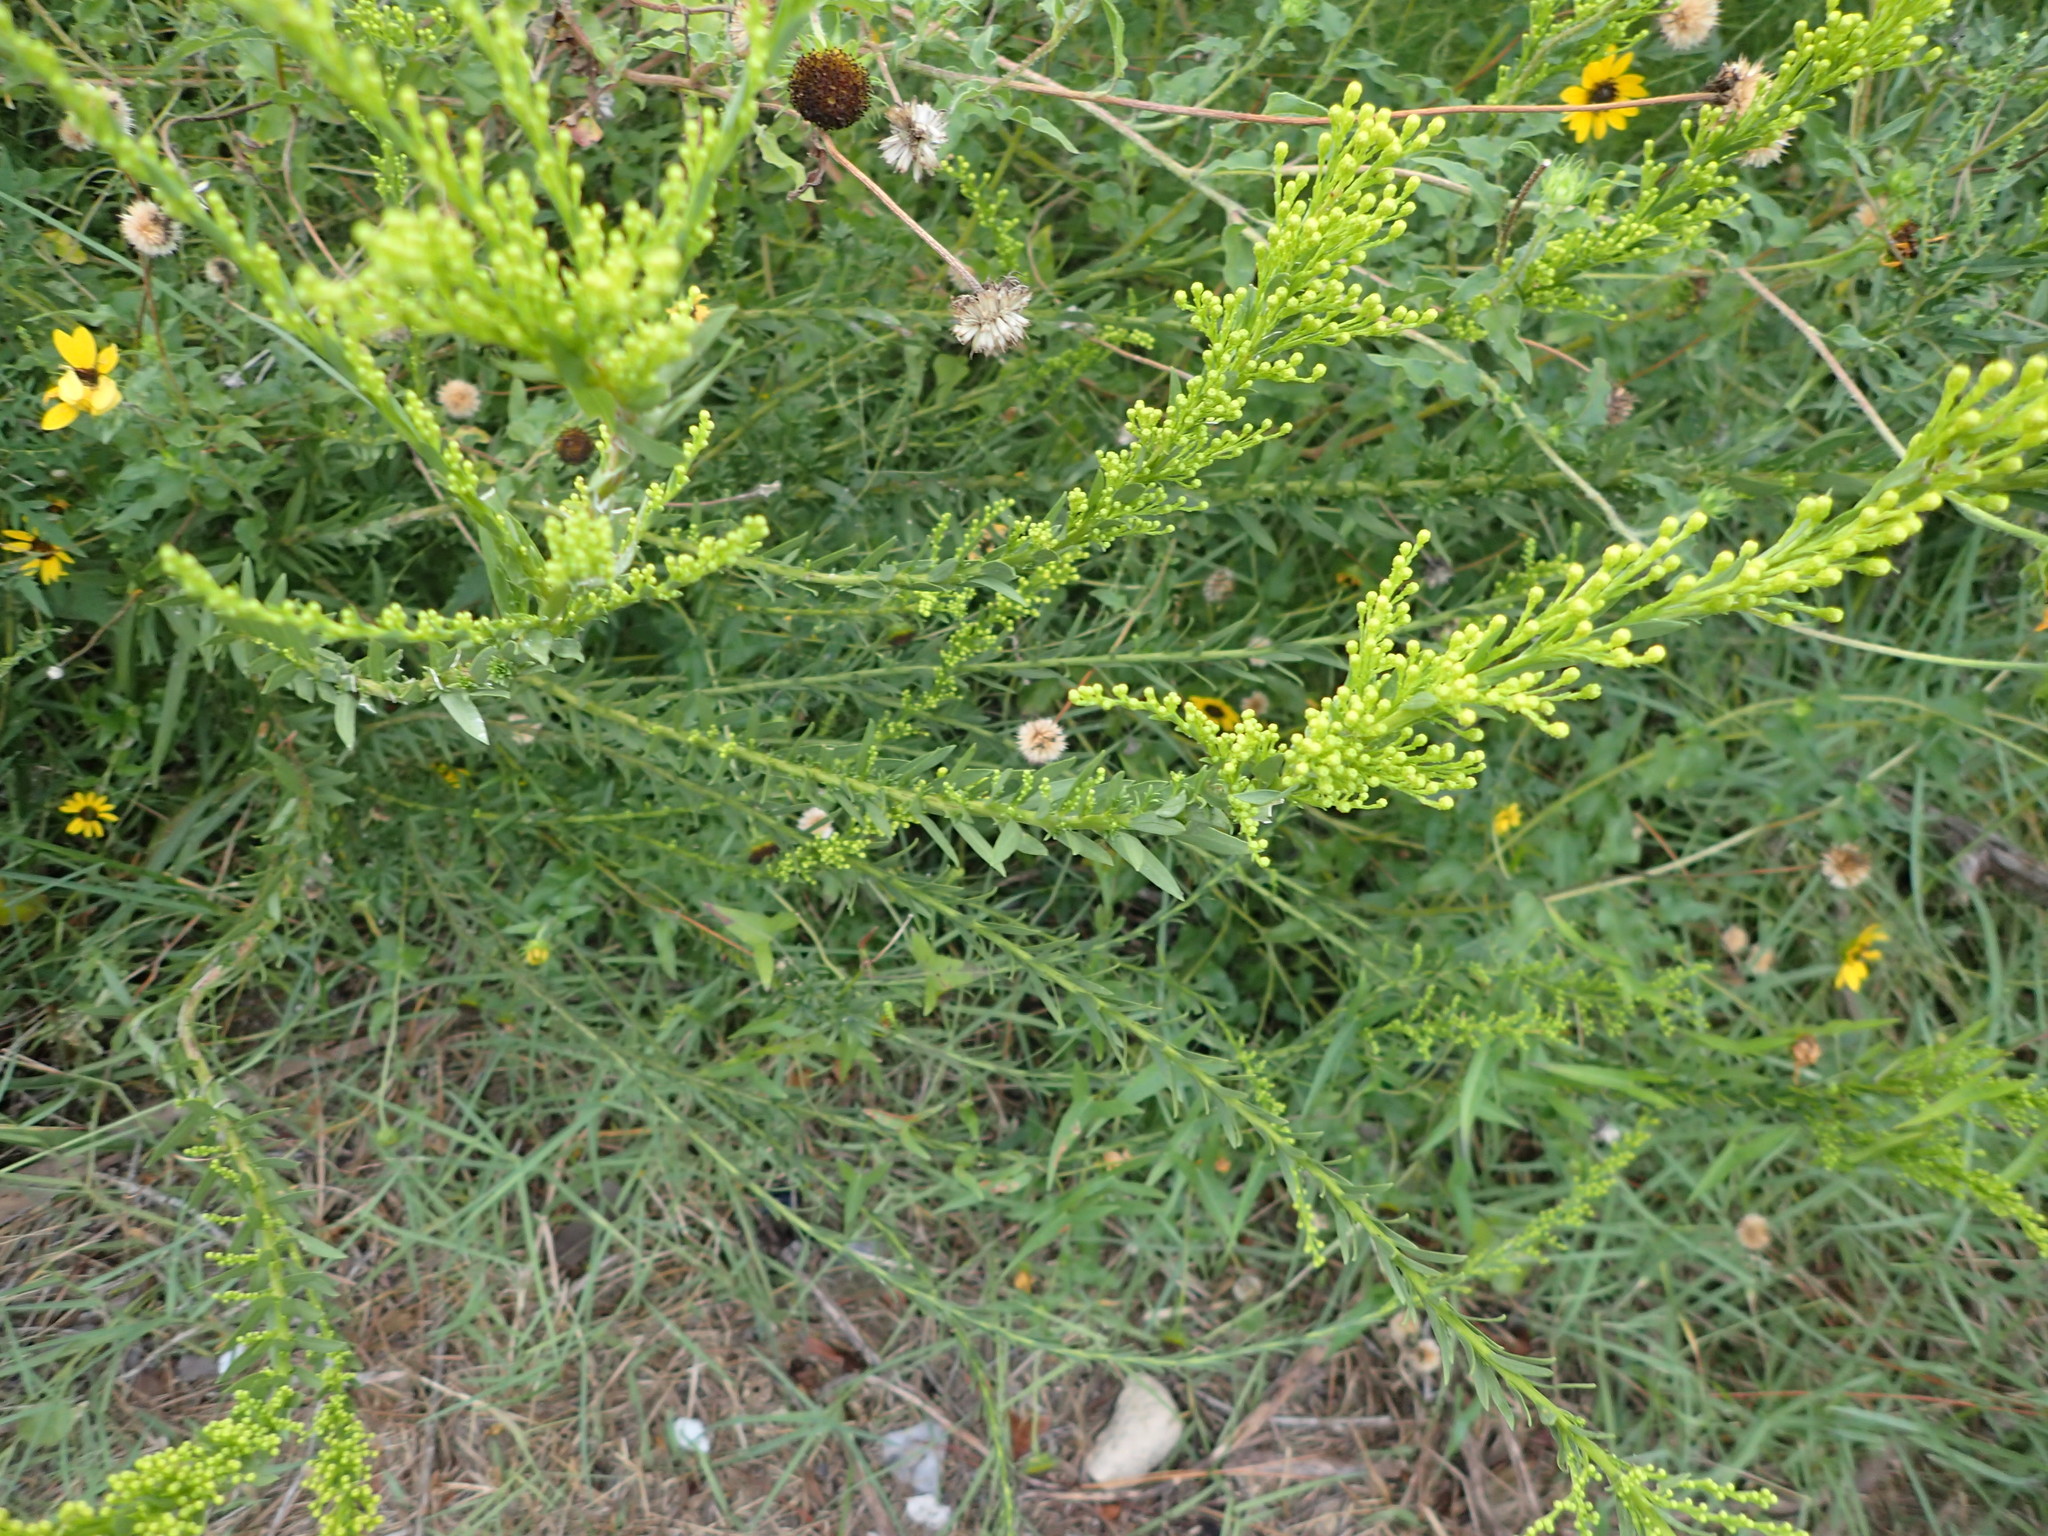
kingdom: Plantae
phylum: Tracheophyta
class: Magnoliopsida
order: Asterales
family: Asteraceae
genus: Solidago
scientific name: Solidago mexicana
